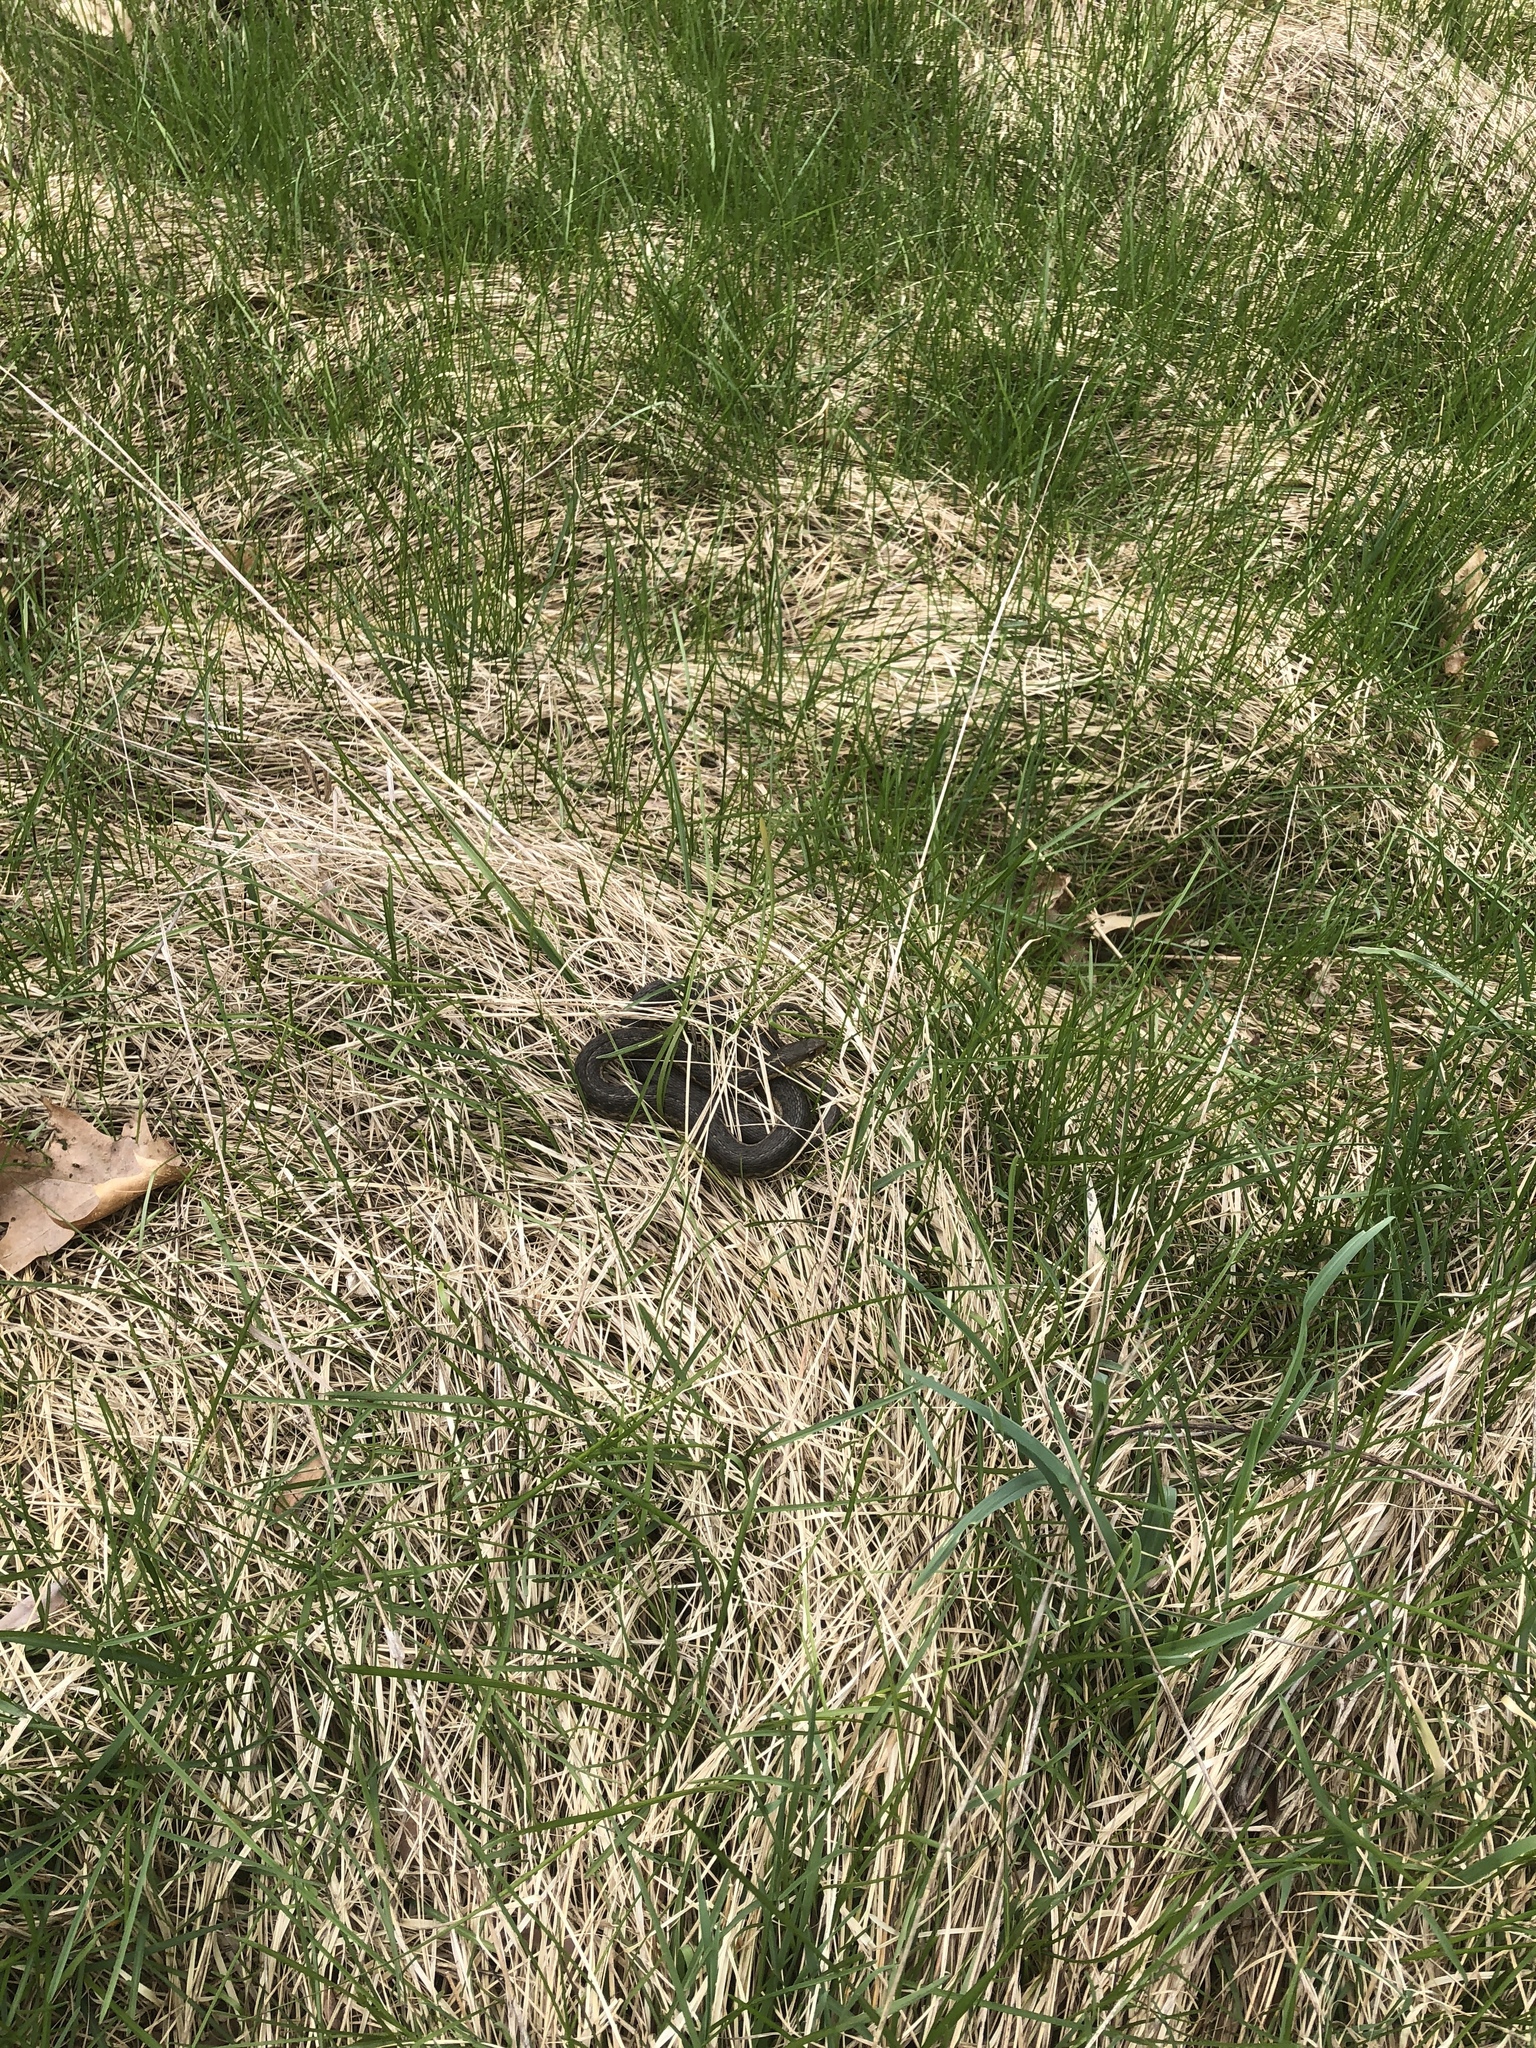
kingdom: Animalia
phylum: Chordata
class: Squamata
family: Colubridae
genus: Thamnophis
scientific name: Thamnophis sirtalis
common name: Common garter snake
